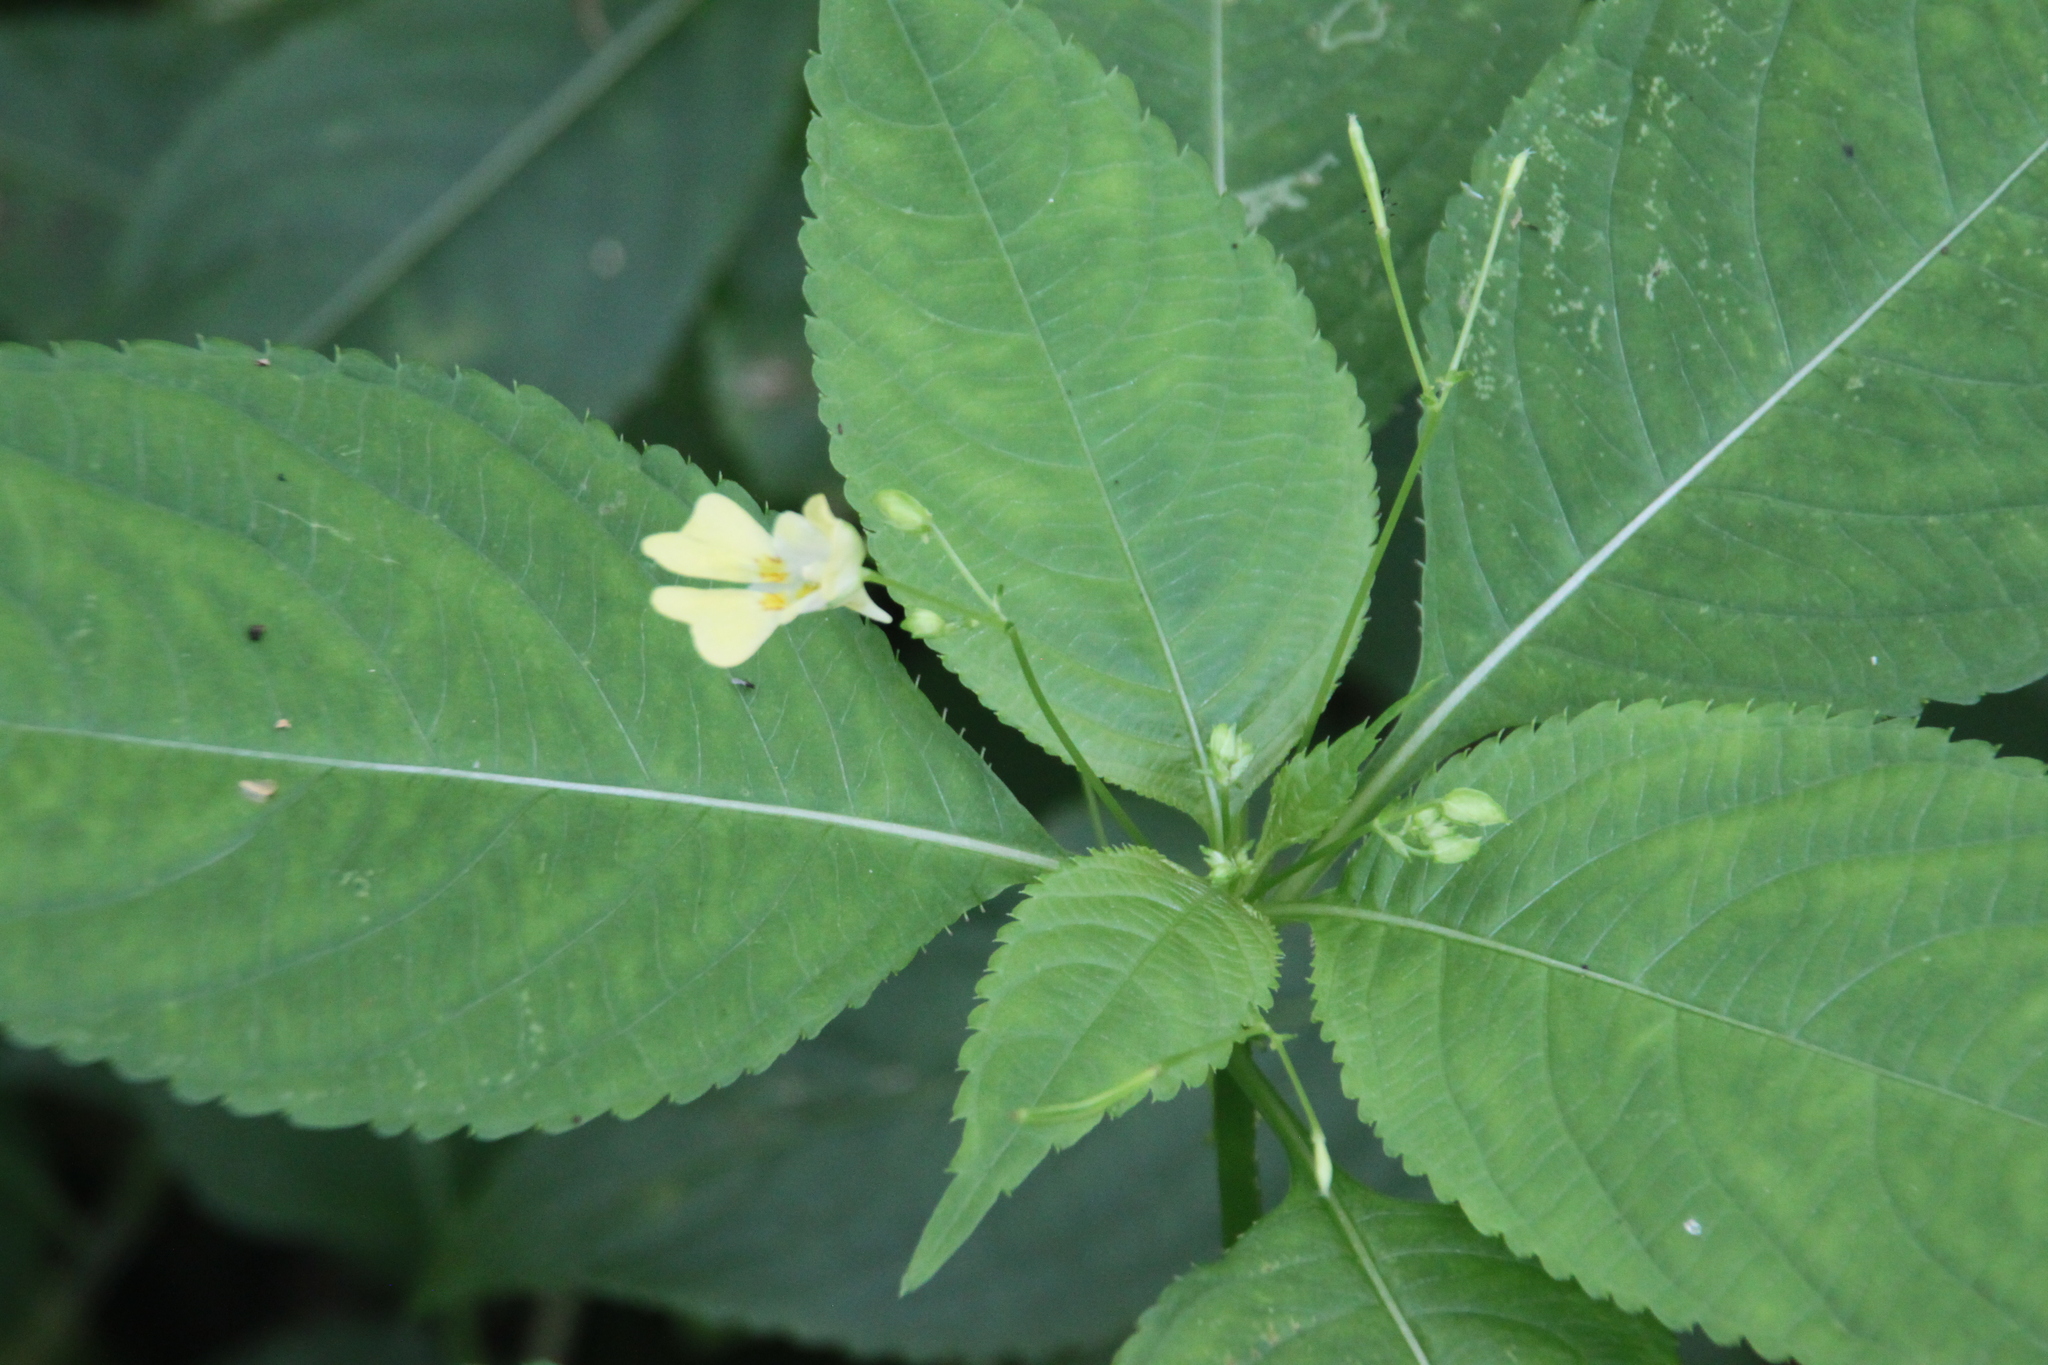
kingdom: Plantae
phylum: Tracheophyta
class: Magnoliopsida
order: Ericales
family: Balsaminaceae
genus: Impatiens
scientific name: Impatiens parviflora
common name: Small balsam
